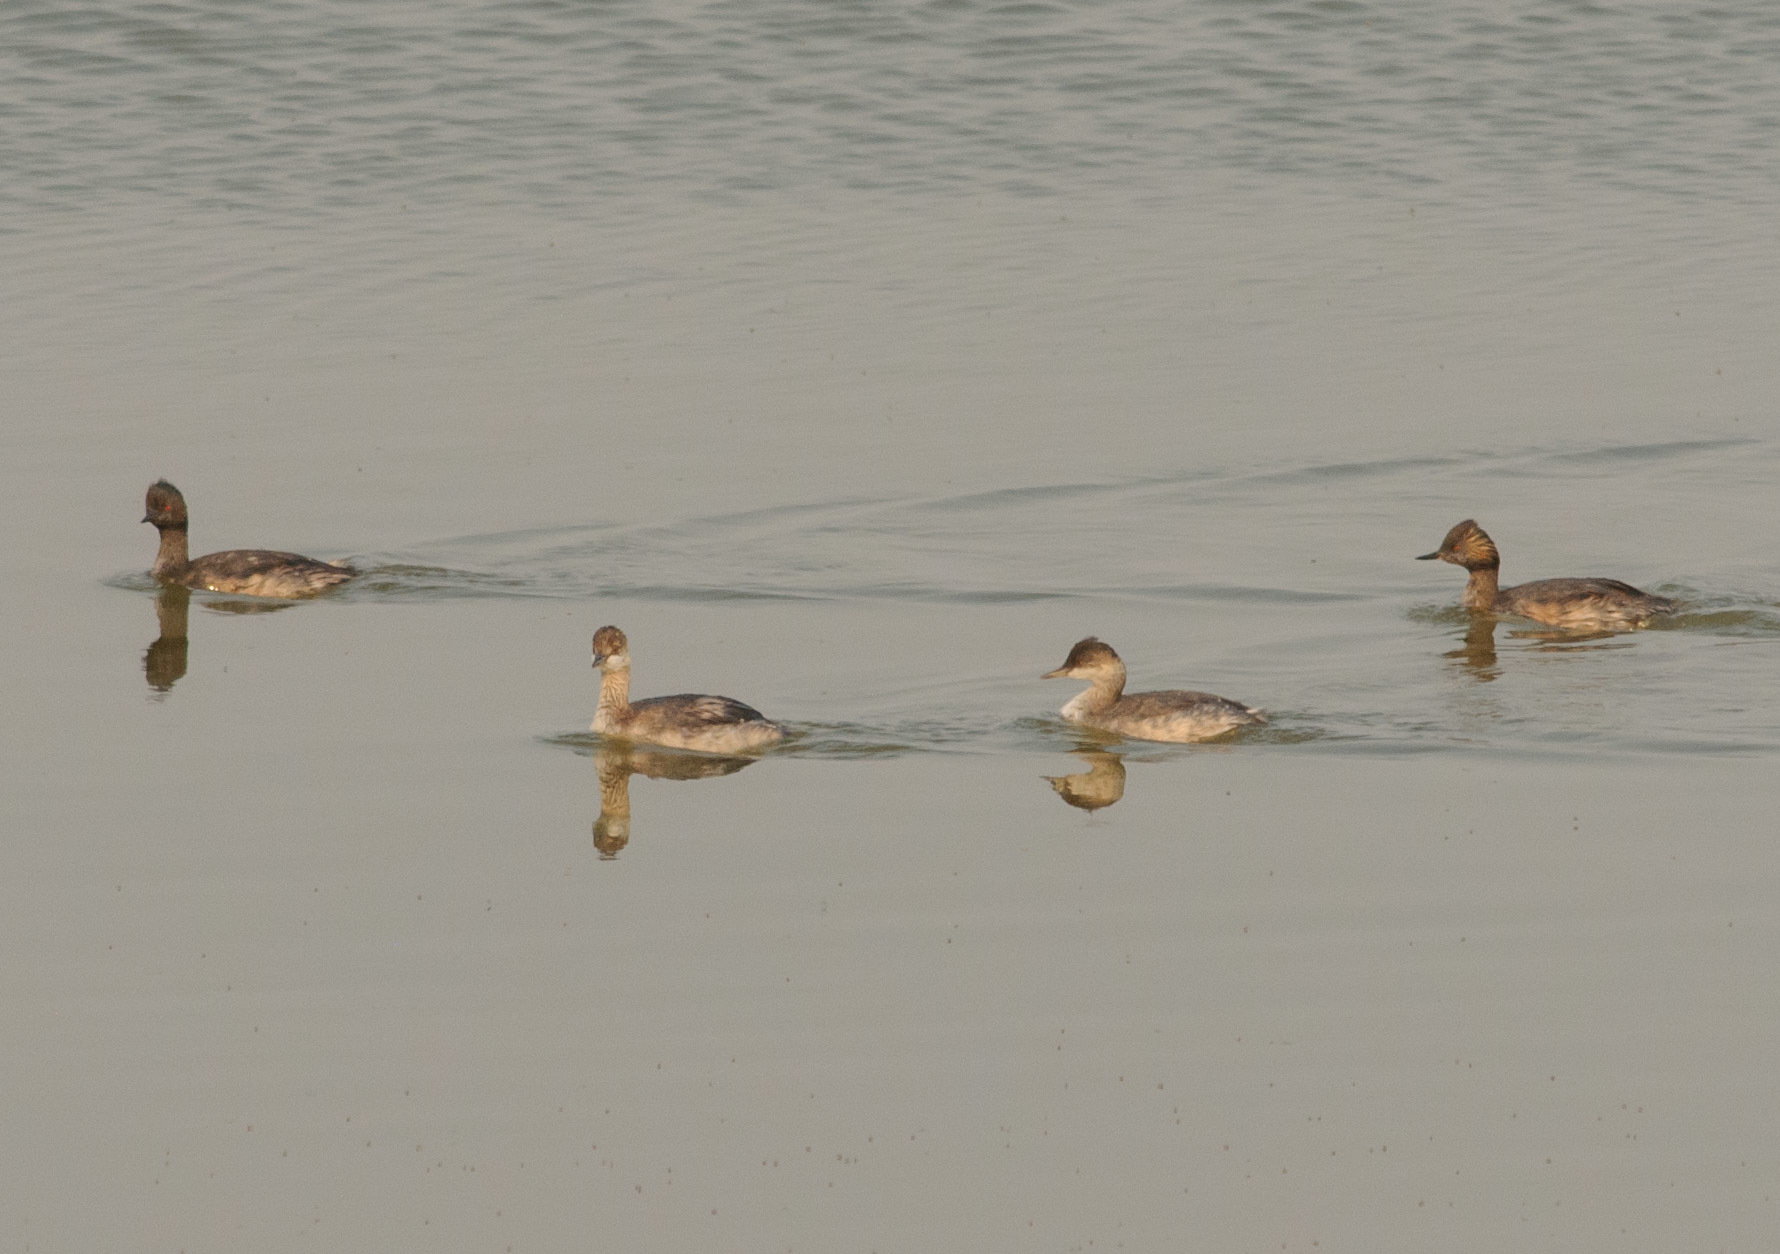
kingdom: Animalia
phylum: Chordata
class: Aves
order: Podicipediformes
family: Podicipedidae
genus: Podiceps
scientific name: Podiceps nigricollis
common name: Black-necked grebe
